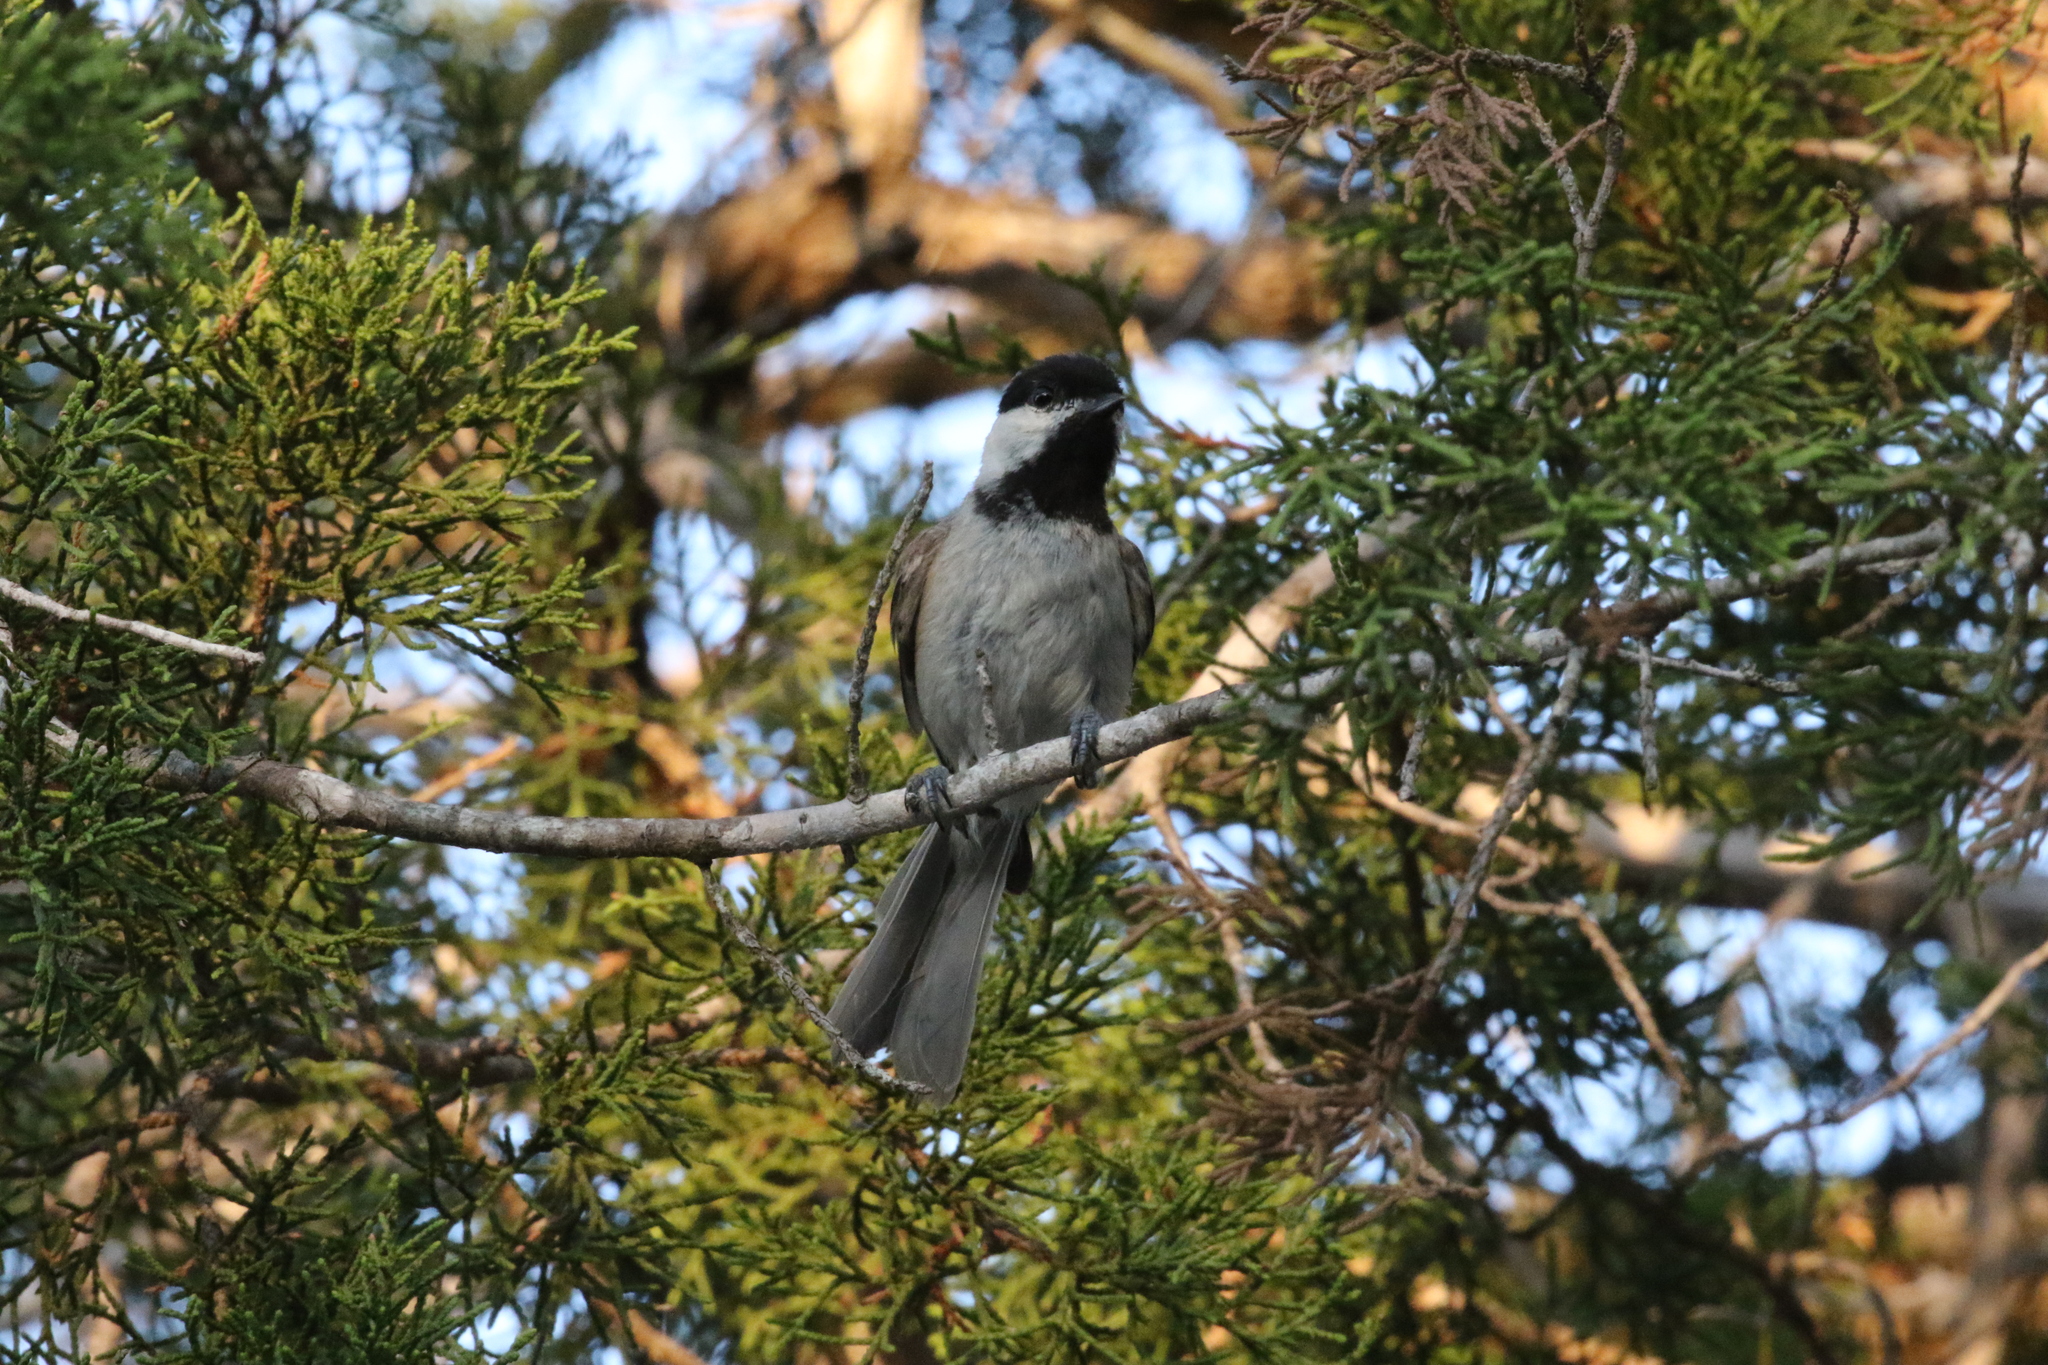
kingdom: Animalia
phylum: Chordata
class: Aves
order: Passeriformes
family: Paridae
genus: Poecile
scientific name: Poecile carolinensis
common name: Carolina chickadee
